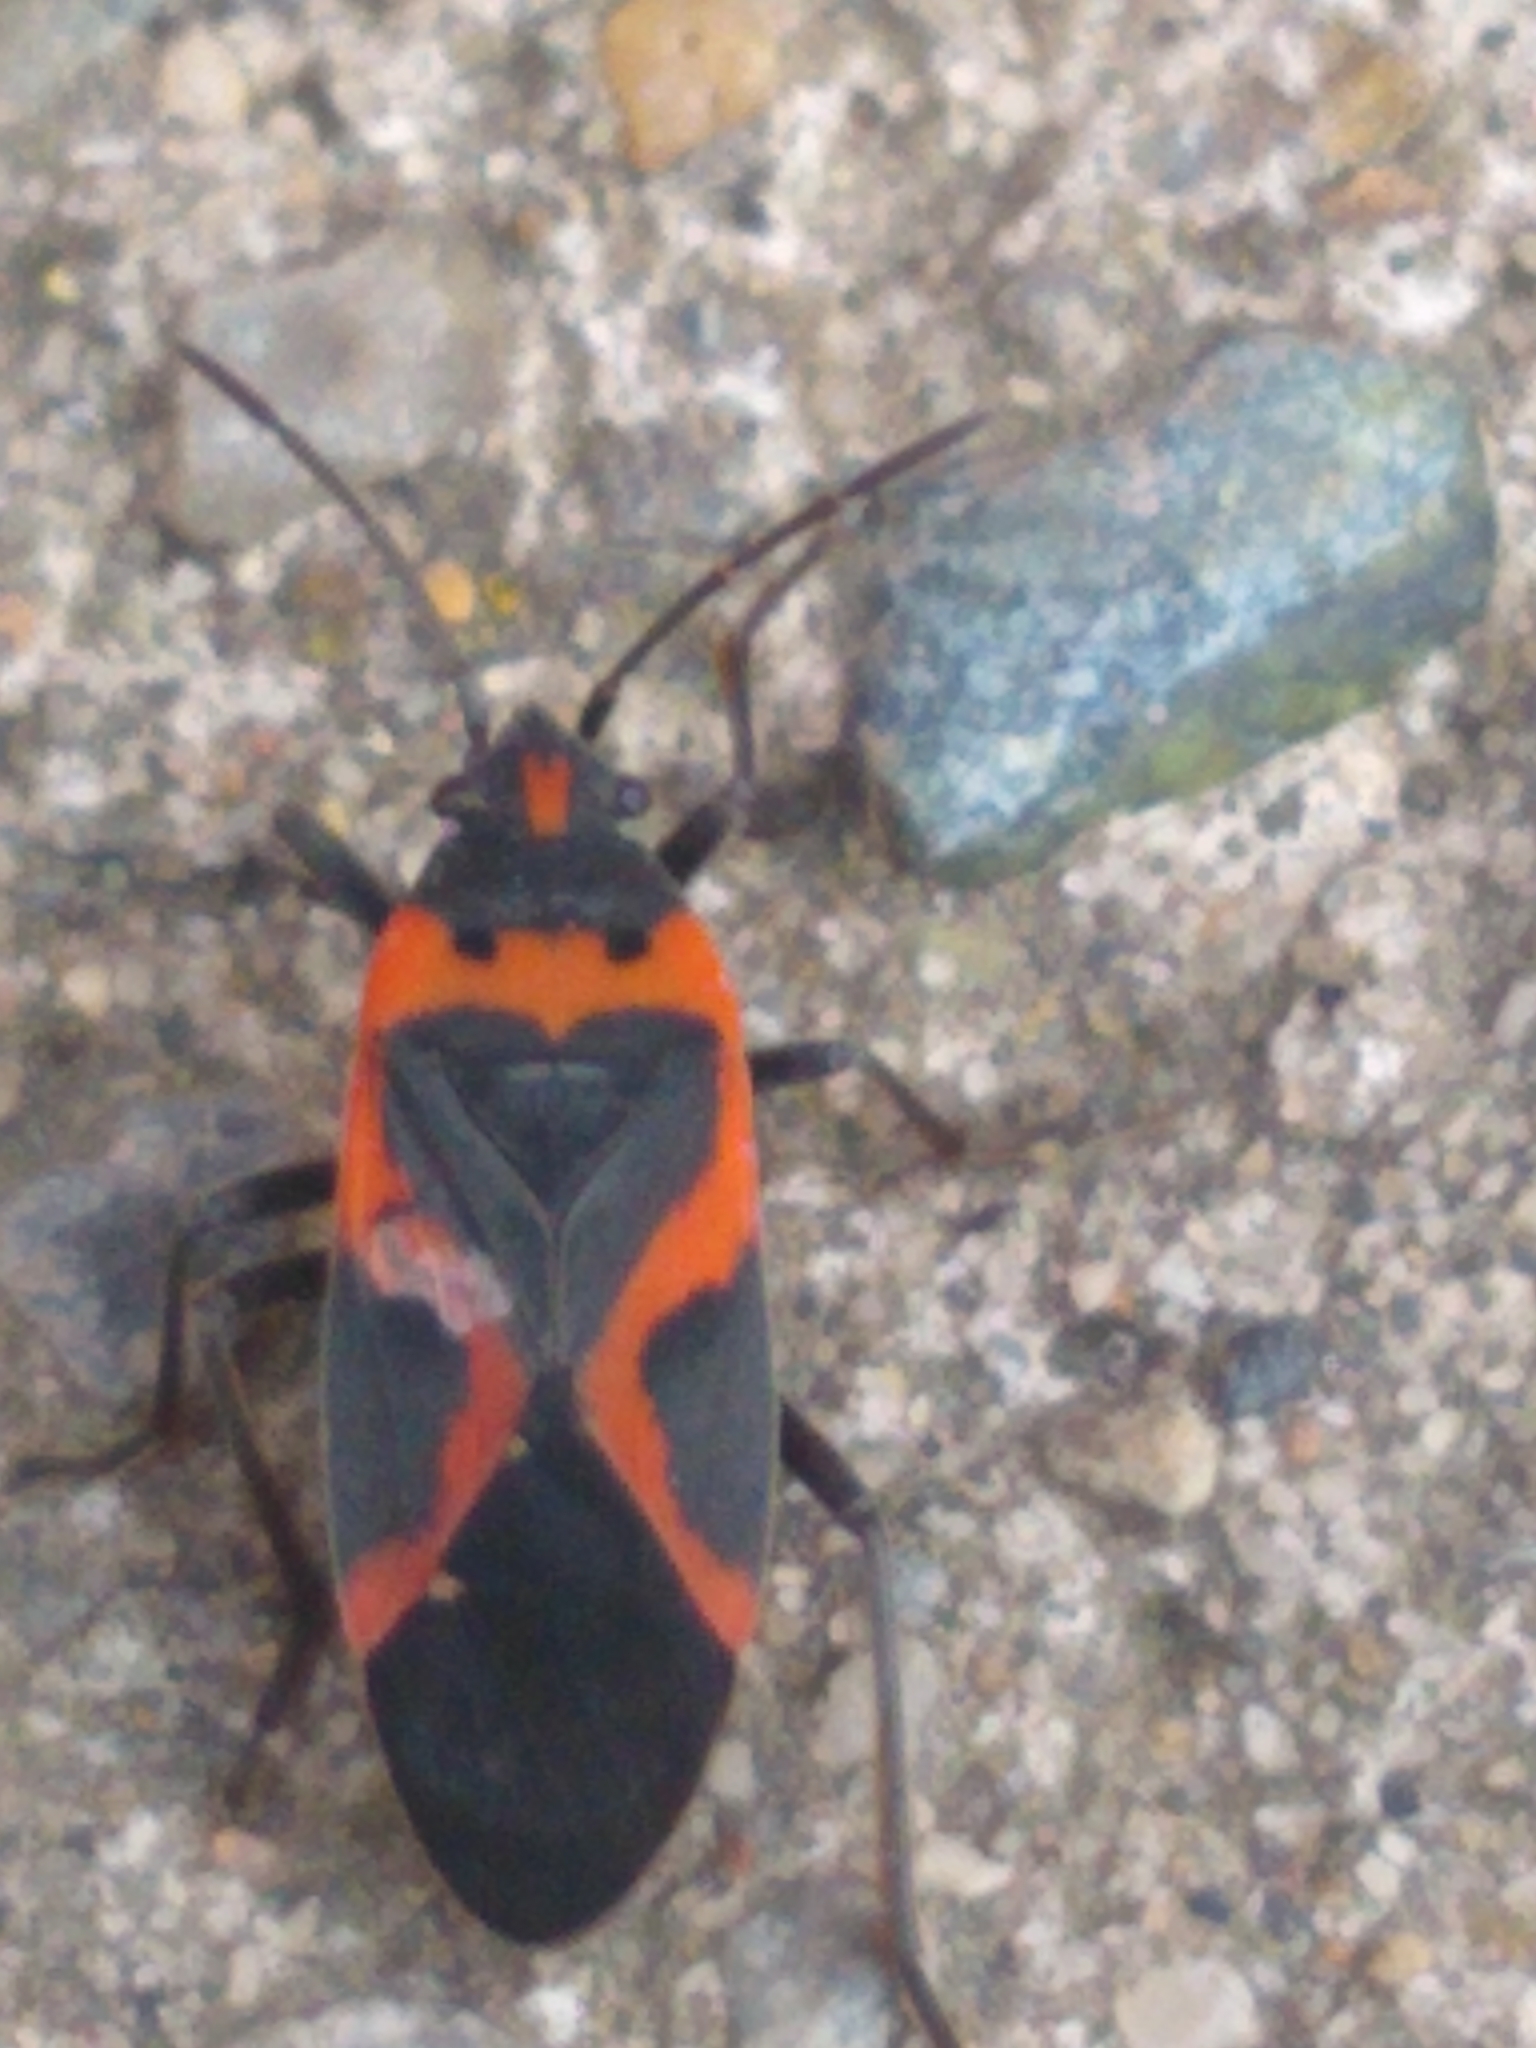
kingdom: Animalia
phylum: Arthropoda
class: Insecta
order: Hemiptera
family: Lygaeidae
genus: Lygaeus
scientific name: Lygaeus kalmii
